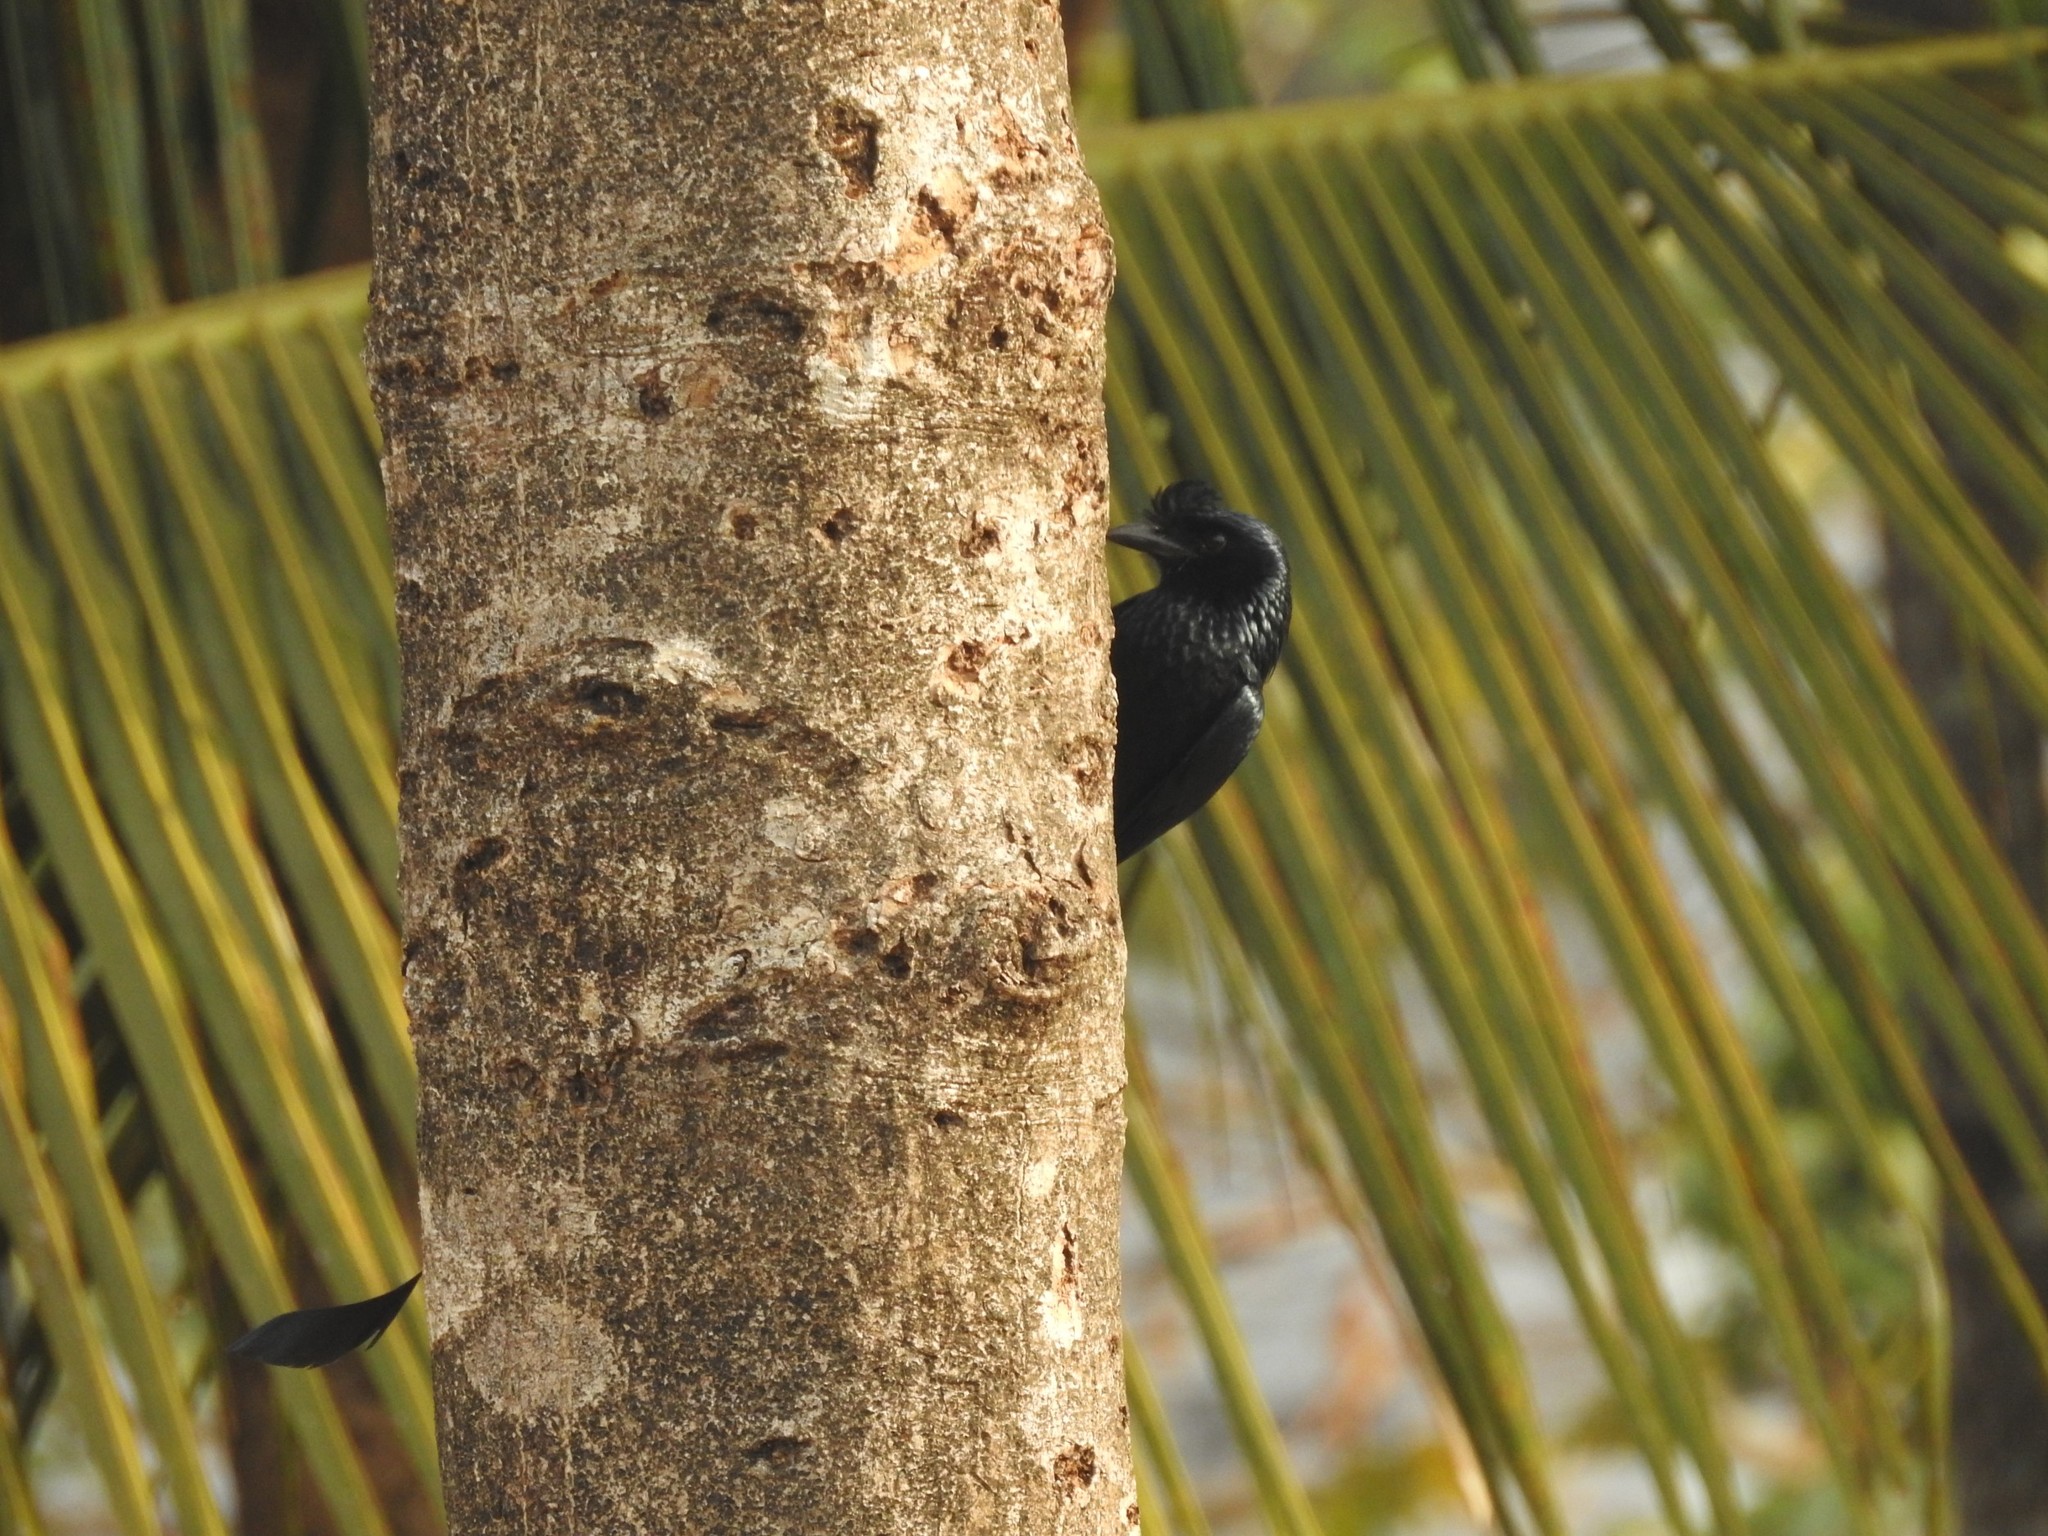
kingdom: Animalia
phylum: Chordata
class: Aves
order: Passeriformes
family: Dicruridae
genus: Dicrurus
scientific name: Dicrurus paradiseus
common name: Greater racket-tailed drongo
